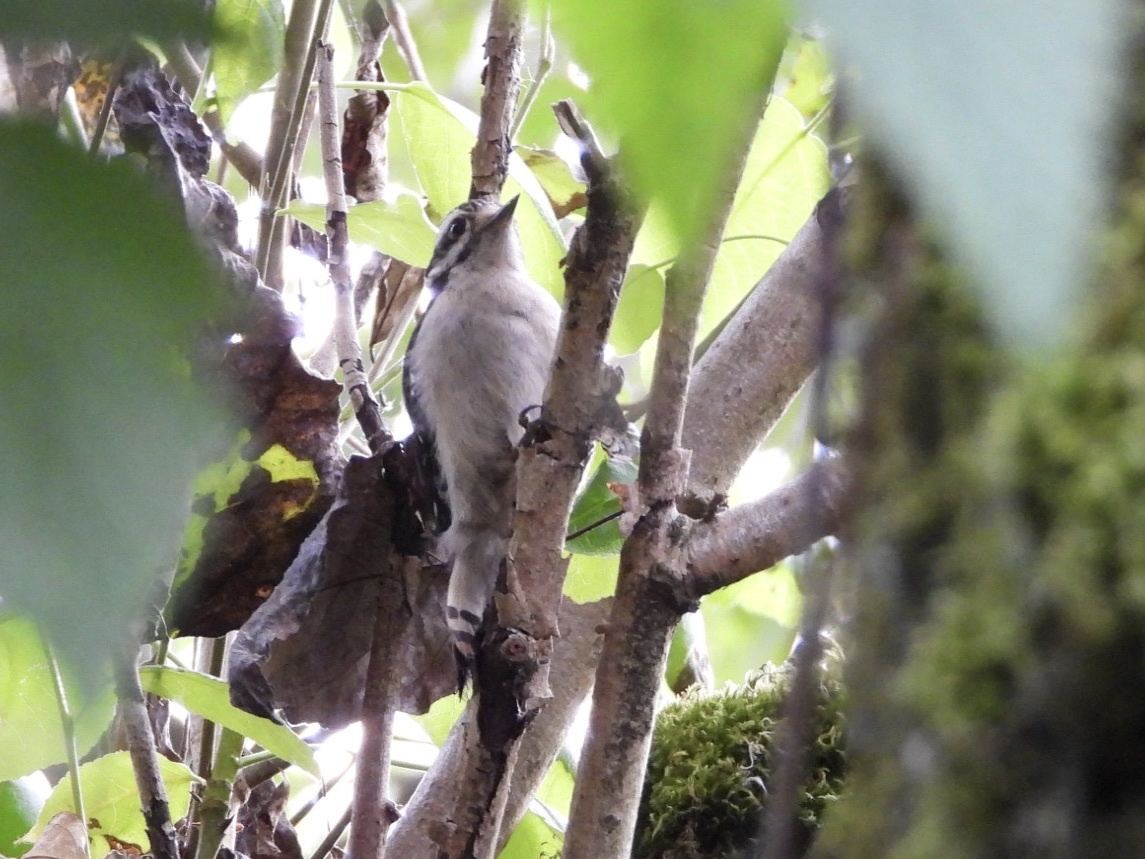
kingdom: Animalia
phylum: Chordata
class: Aves
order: Piciformes
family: Picidae
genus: Dryobates
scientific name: Dryobates pubescens
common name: Downy woodpecker
